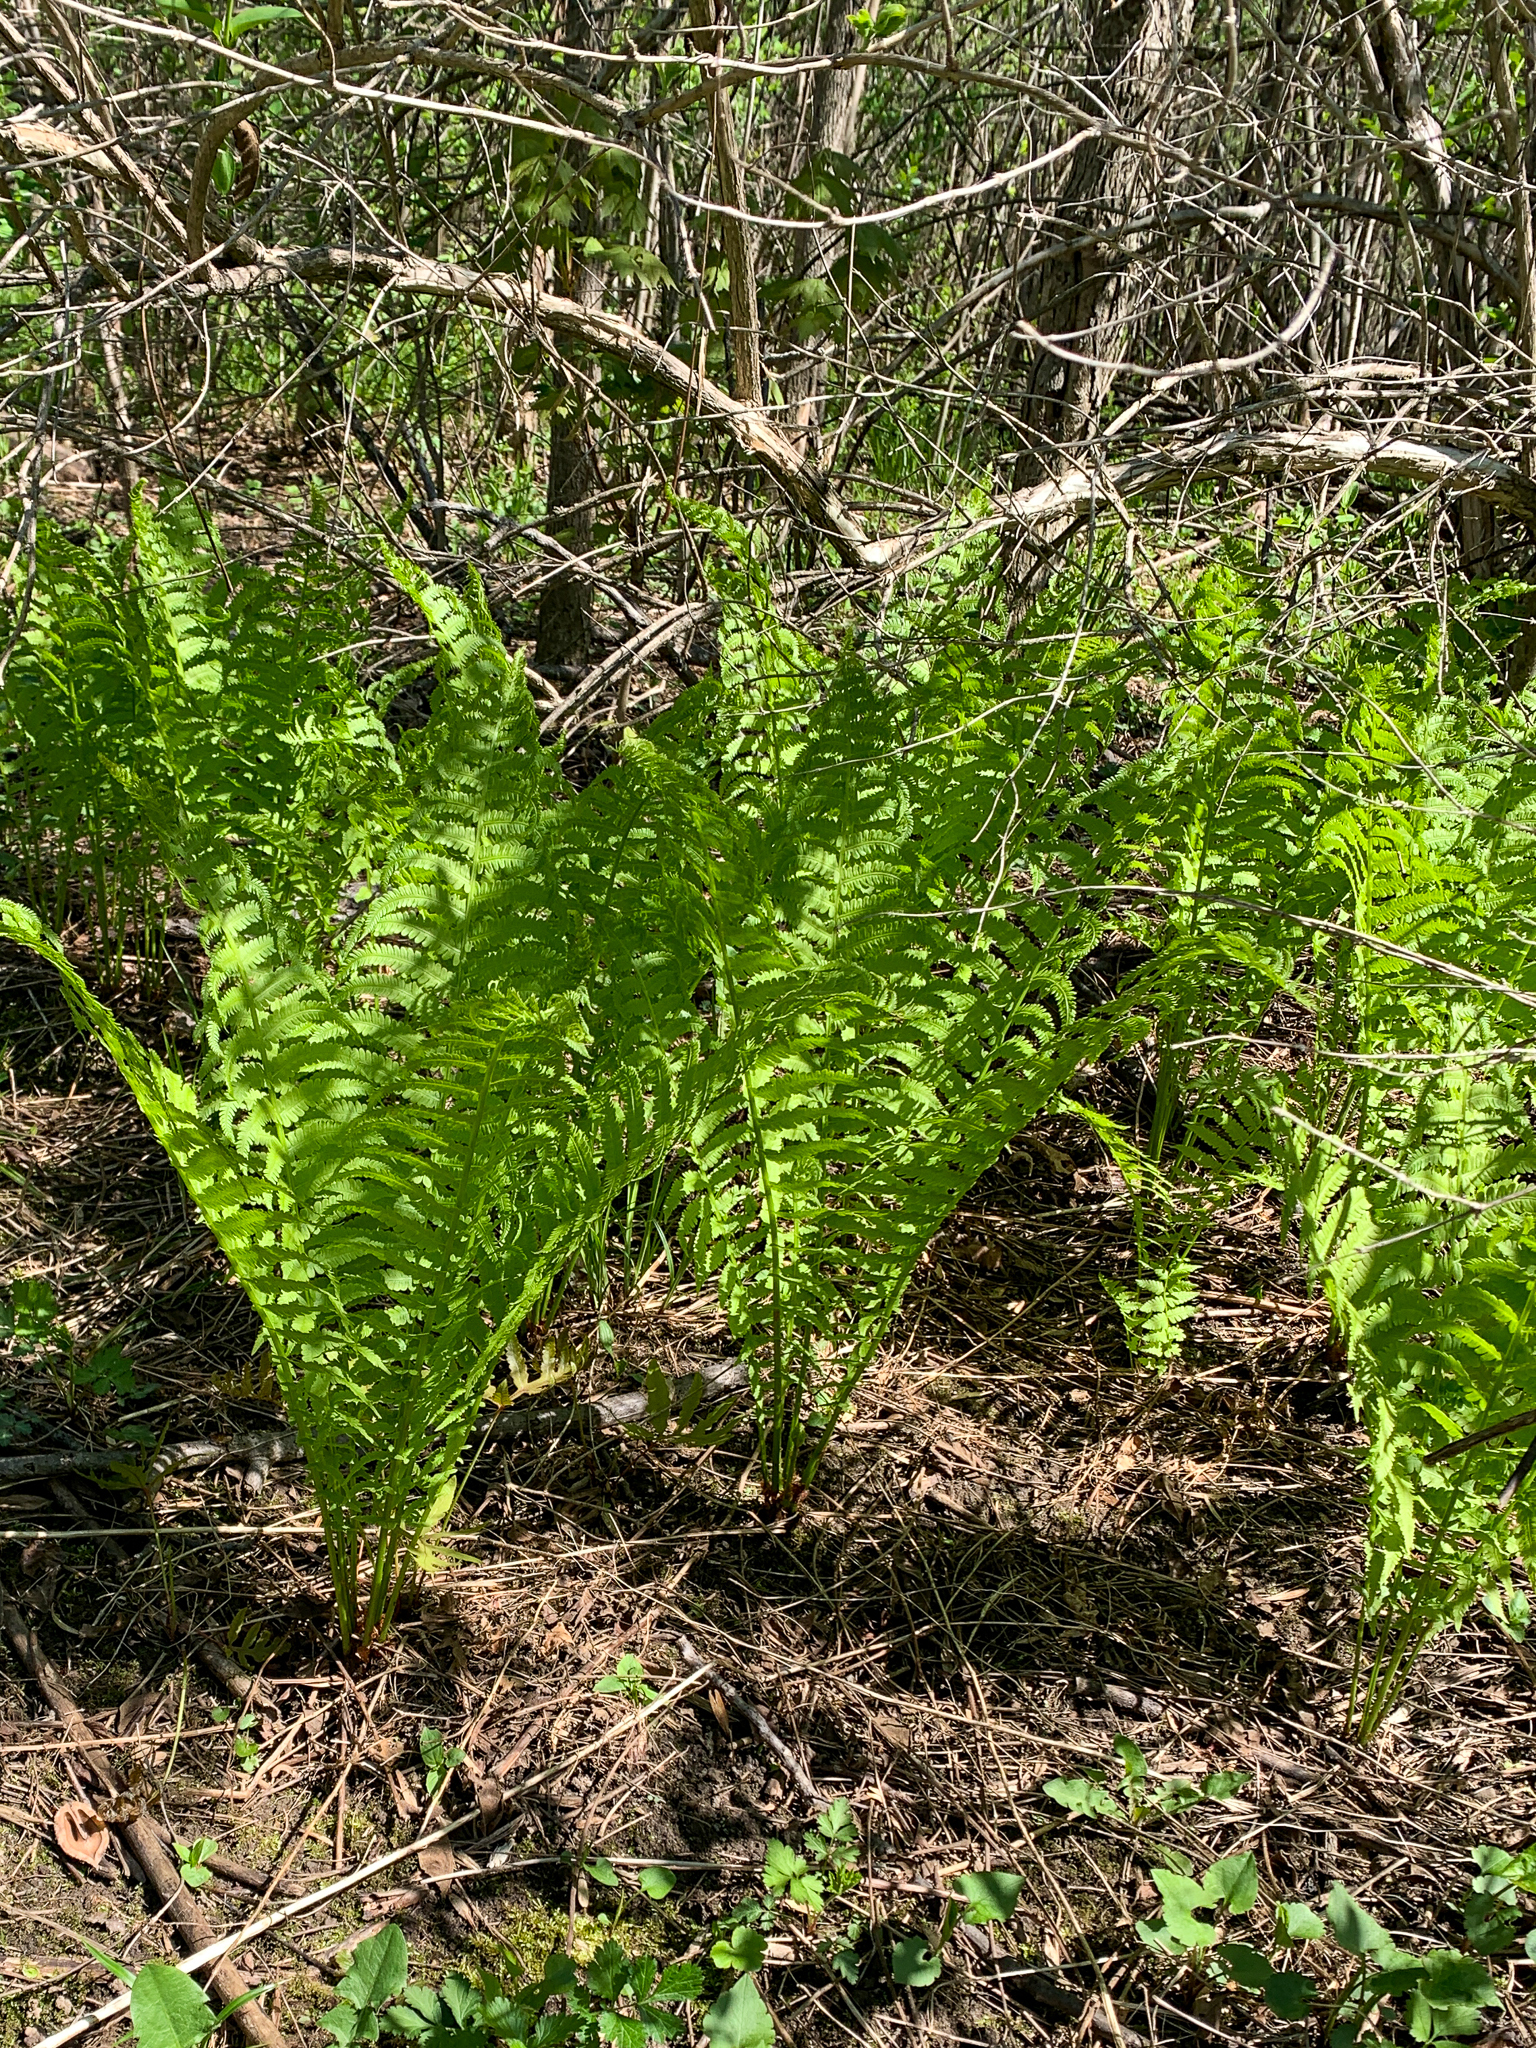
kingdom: Plantae
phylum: Tracheophyta
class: Polypodiopsida
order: Polypodiales
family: Onocleaceae
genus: Matteuccia
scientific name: Matteuccia struthiopteris
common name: Ostrich fern
